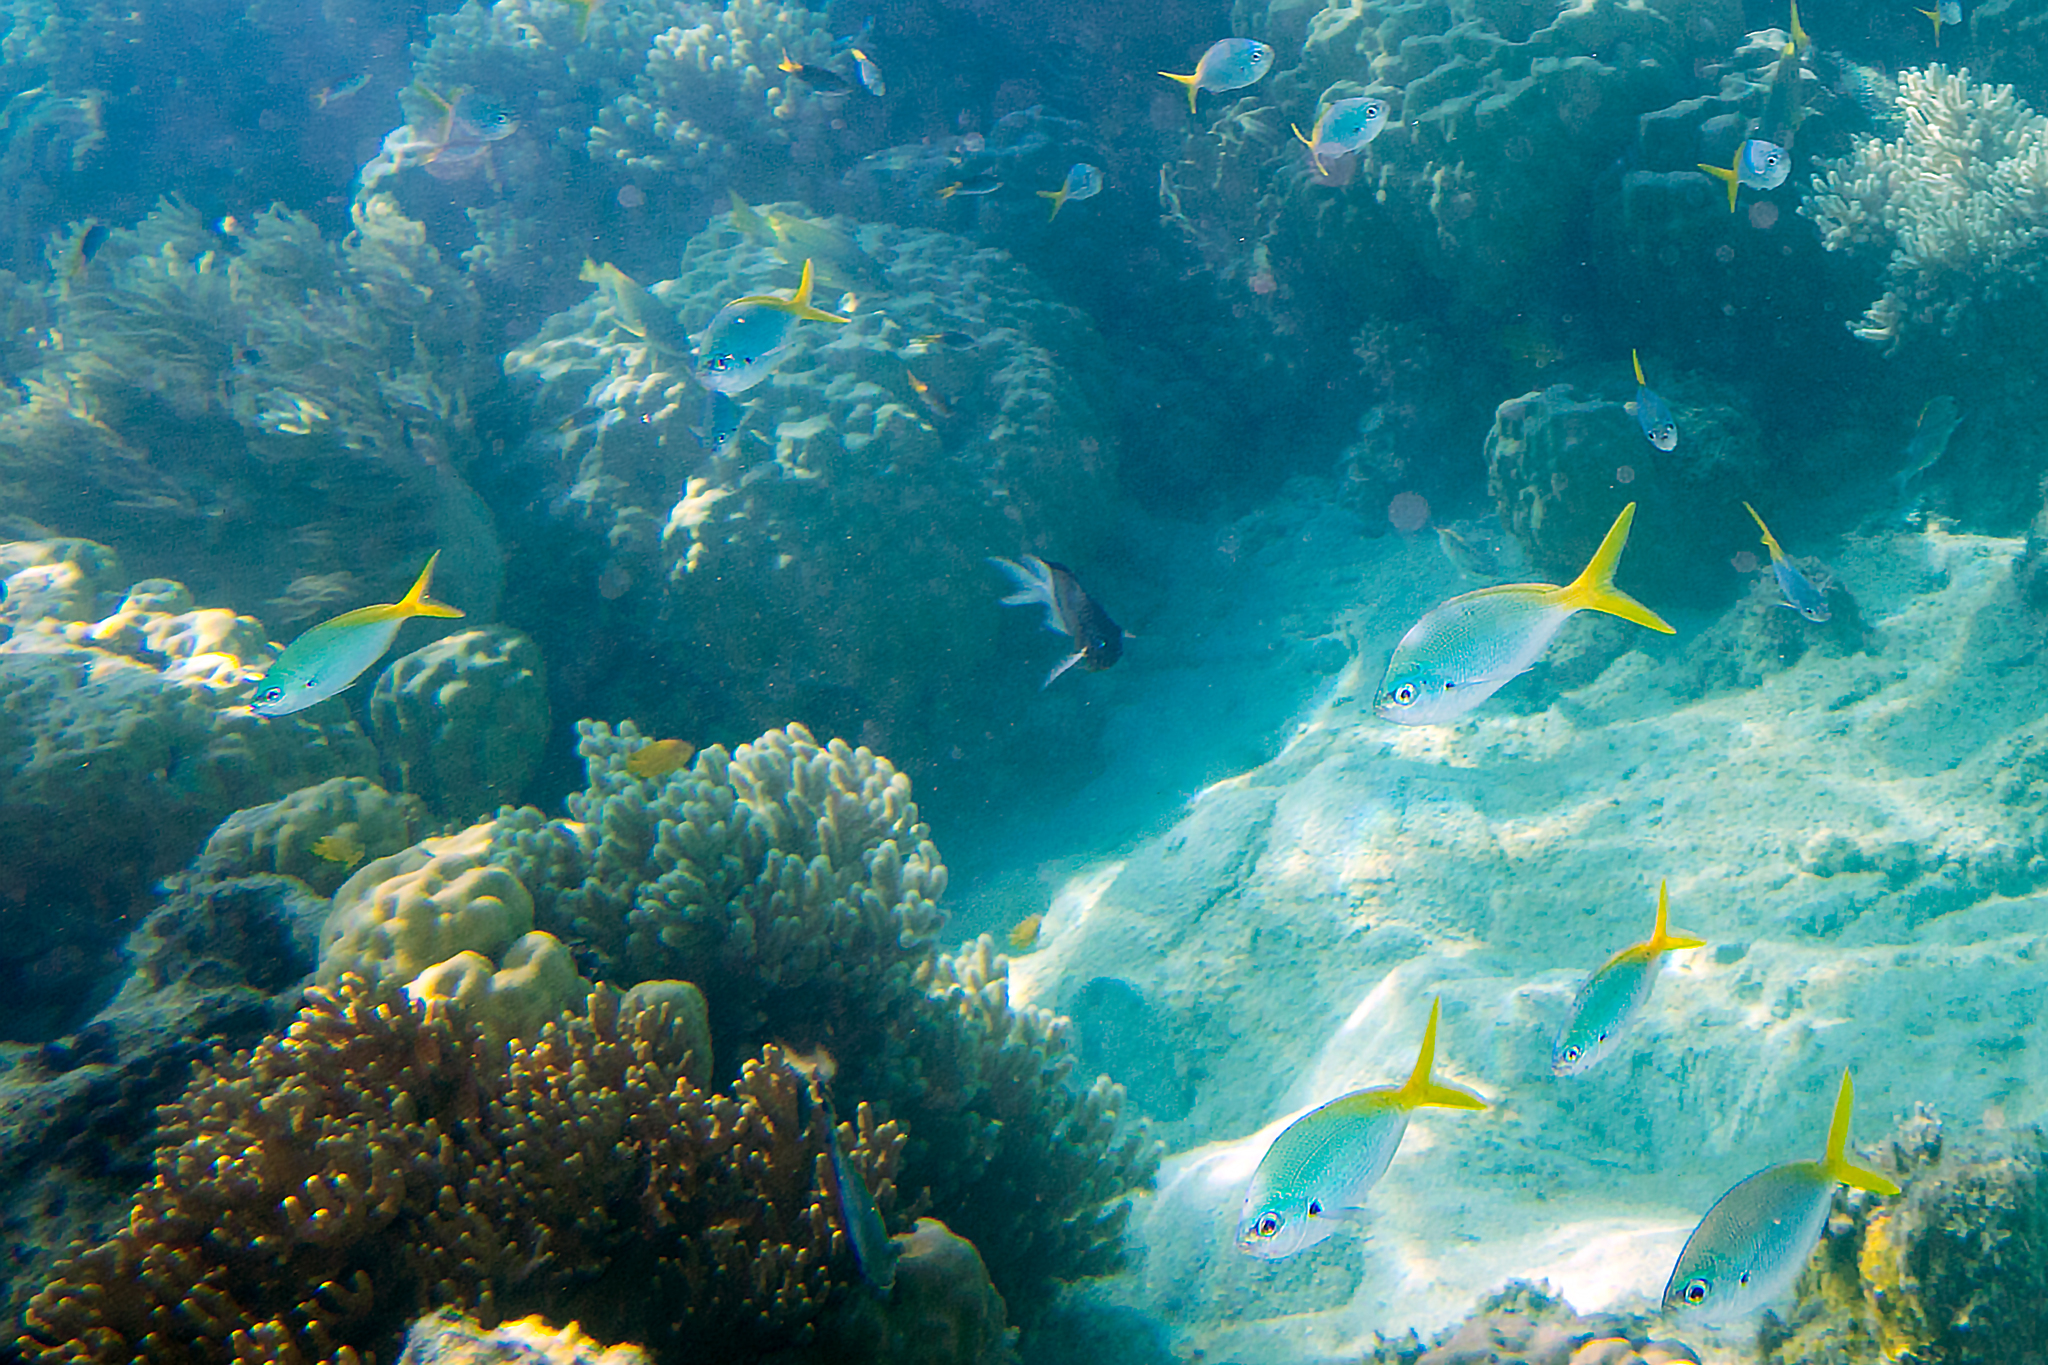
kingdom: Animalia
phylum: Chordata
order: Perciformes
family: Caesionidae
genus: Caesio
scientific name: Caesio cuning
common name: Red-bellied fusilier
